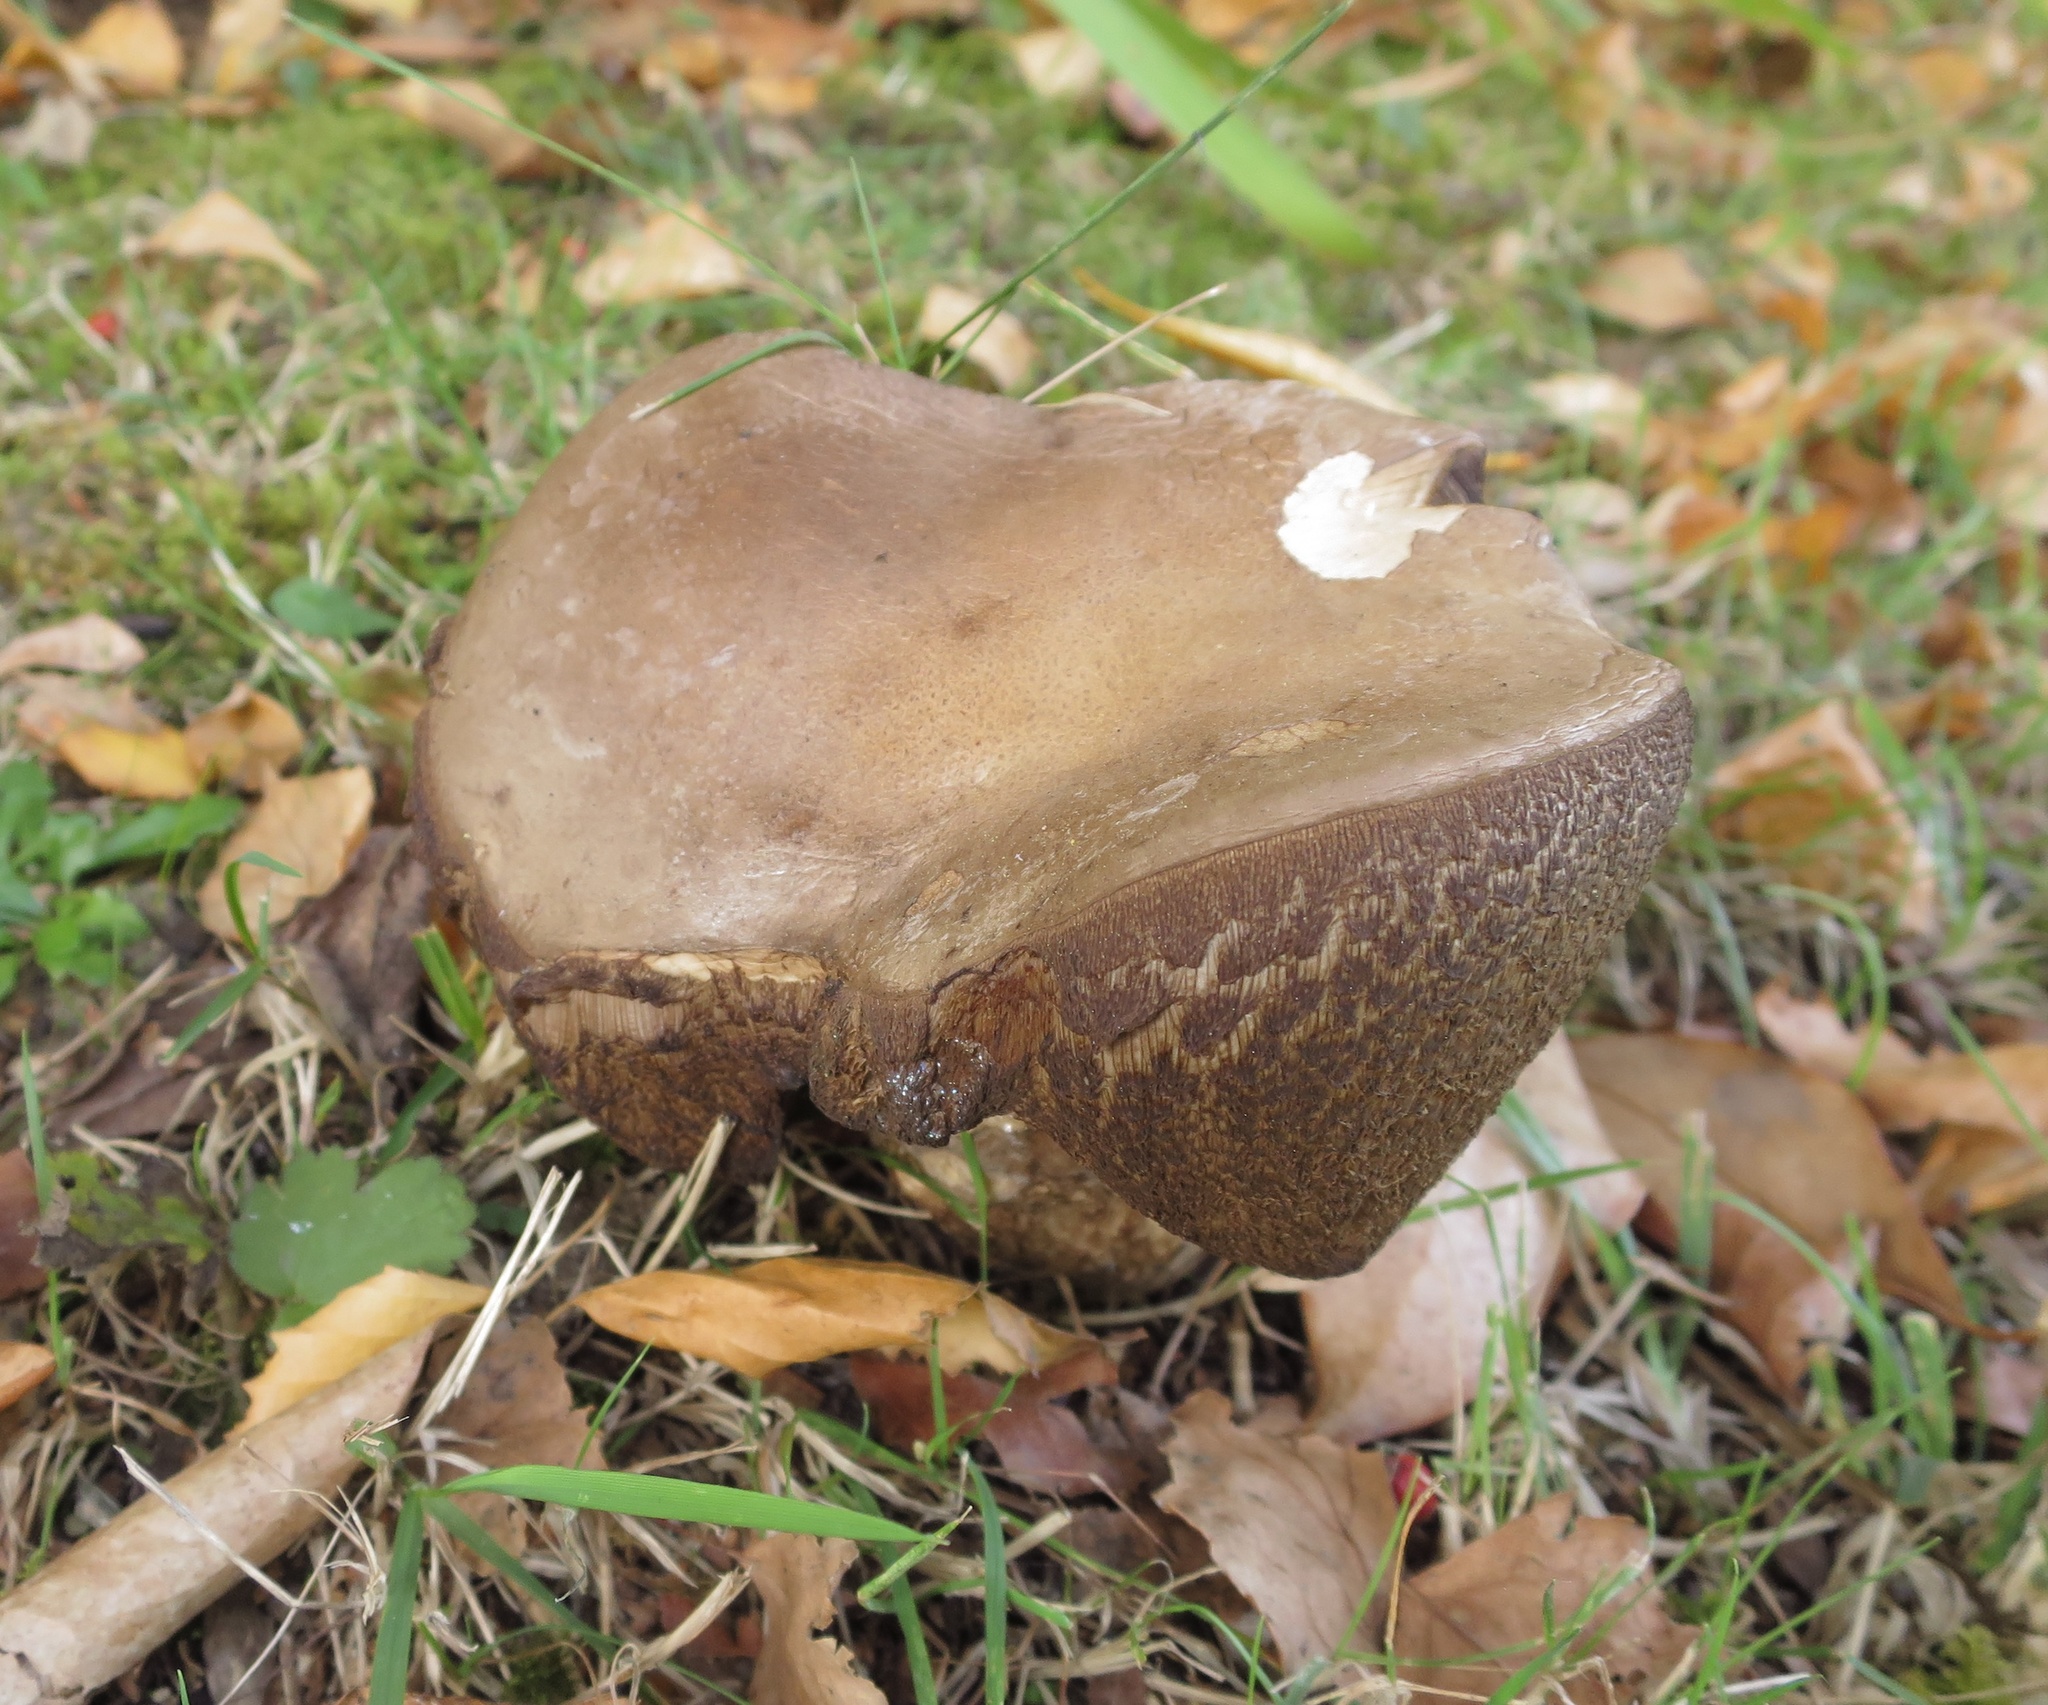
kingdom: Fungi
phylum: Basidiomycota
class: Agaricomycetes
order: Boletales
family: Boletaceae
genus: Leccinum
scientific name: Leccinum scabrum
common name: Blushing bolete
